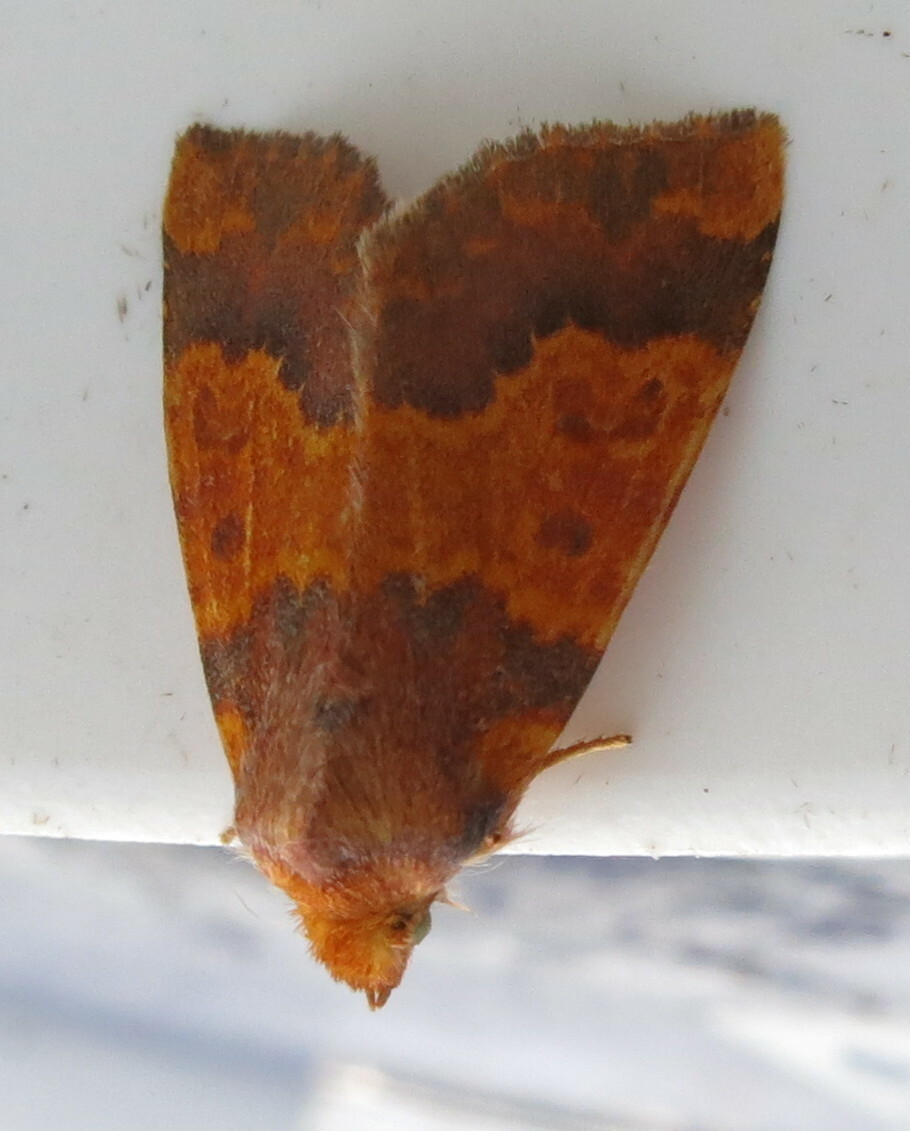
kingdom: Animalia
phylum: Arthropoda
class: Insecta
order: Lepidoptera
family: Noctuidae
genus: Tiliacea
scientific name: Tiliacea aurago
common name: Barred sallow
